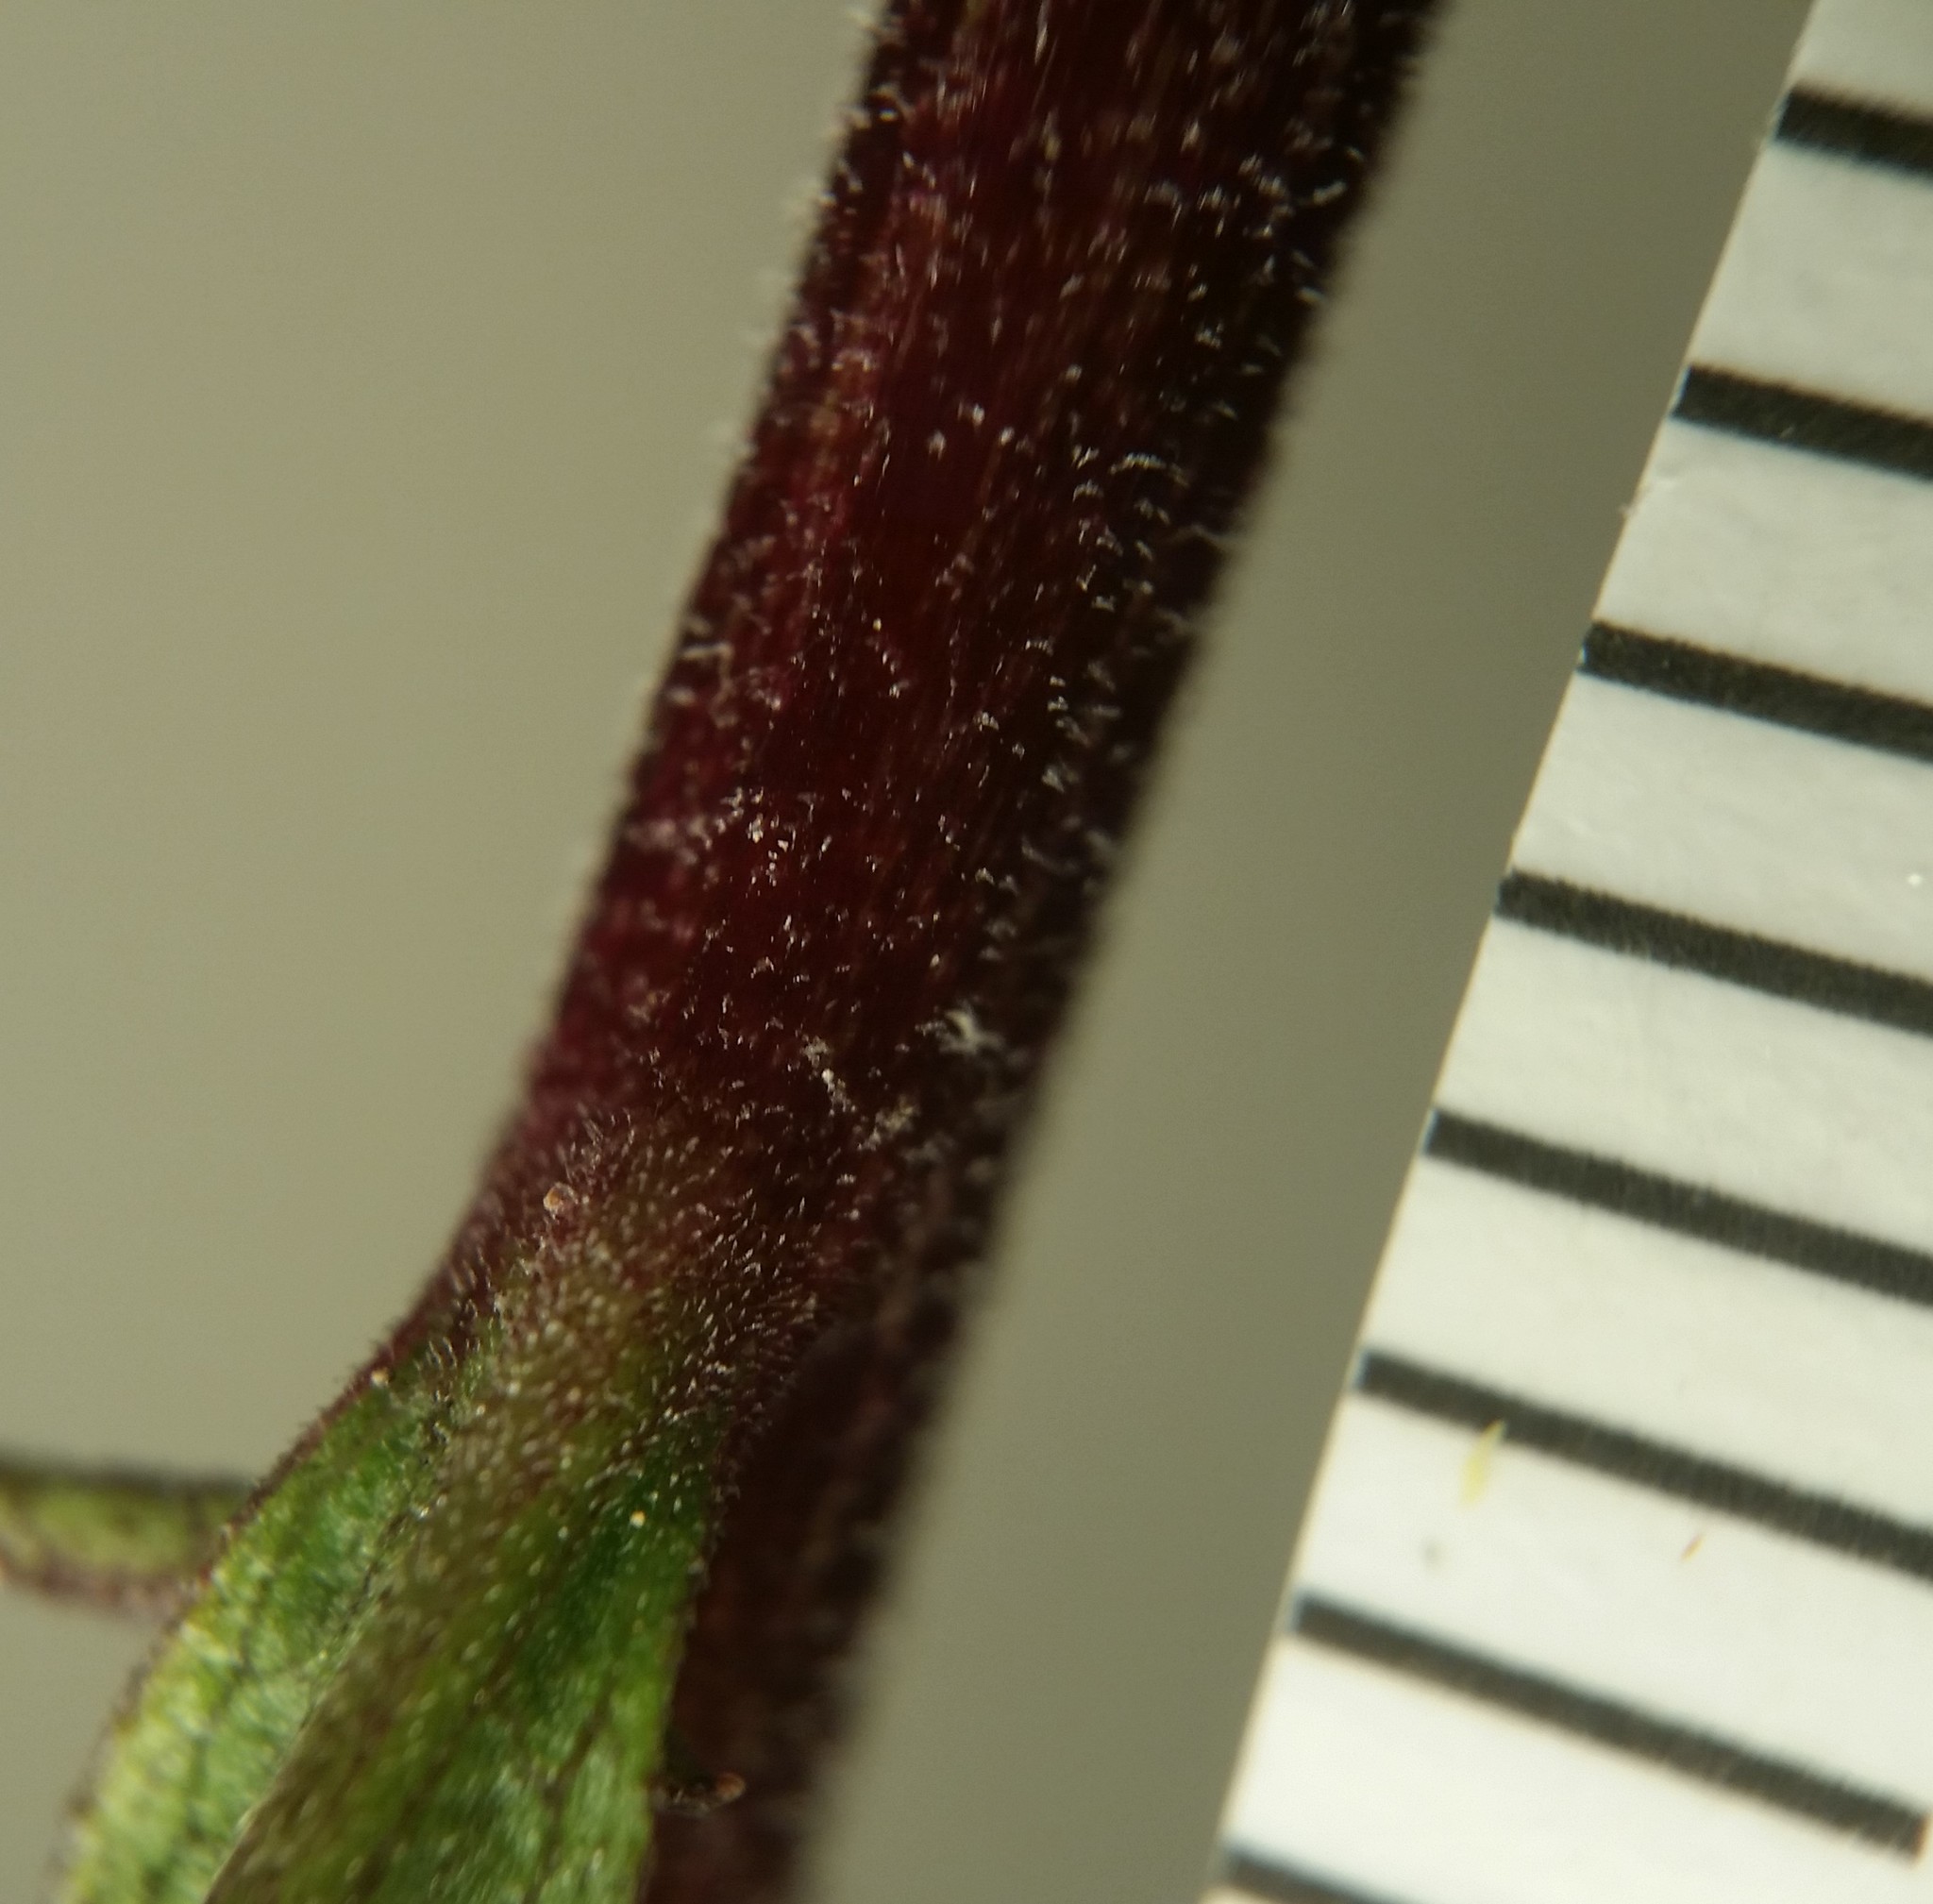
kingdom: Plantae
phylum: Tracheophyta
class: Magnoliopsida
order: Asterales
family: Asteraceae
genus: Solidago
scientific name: Solidago puberula
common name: Downy goldenrod
